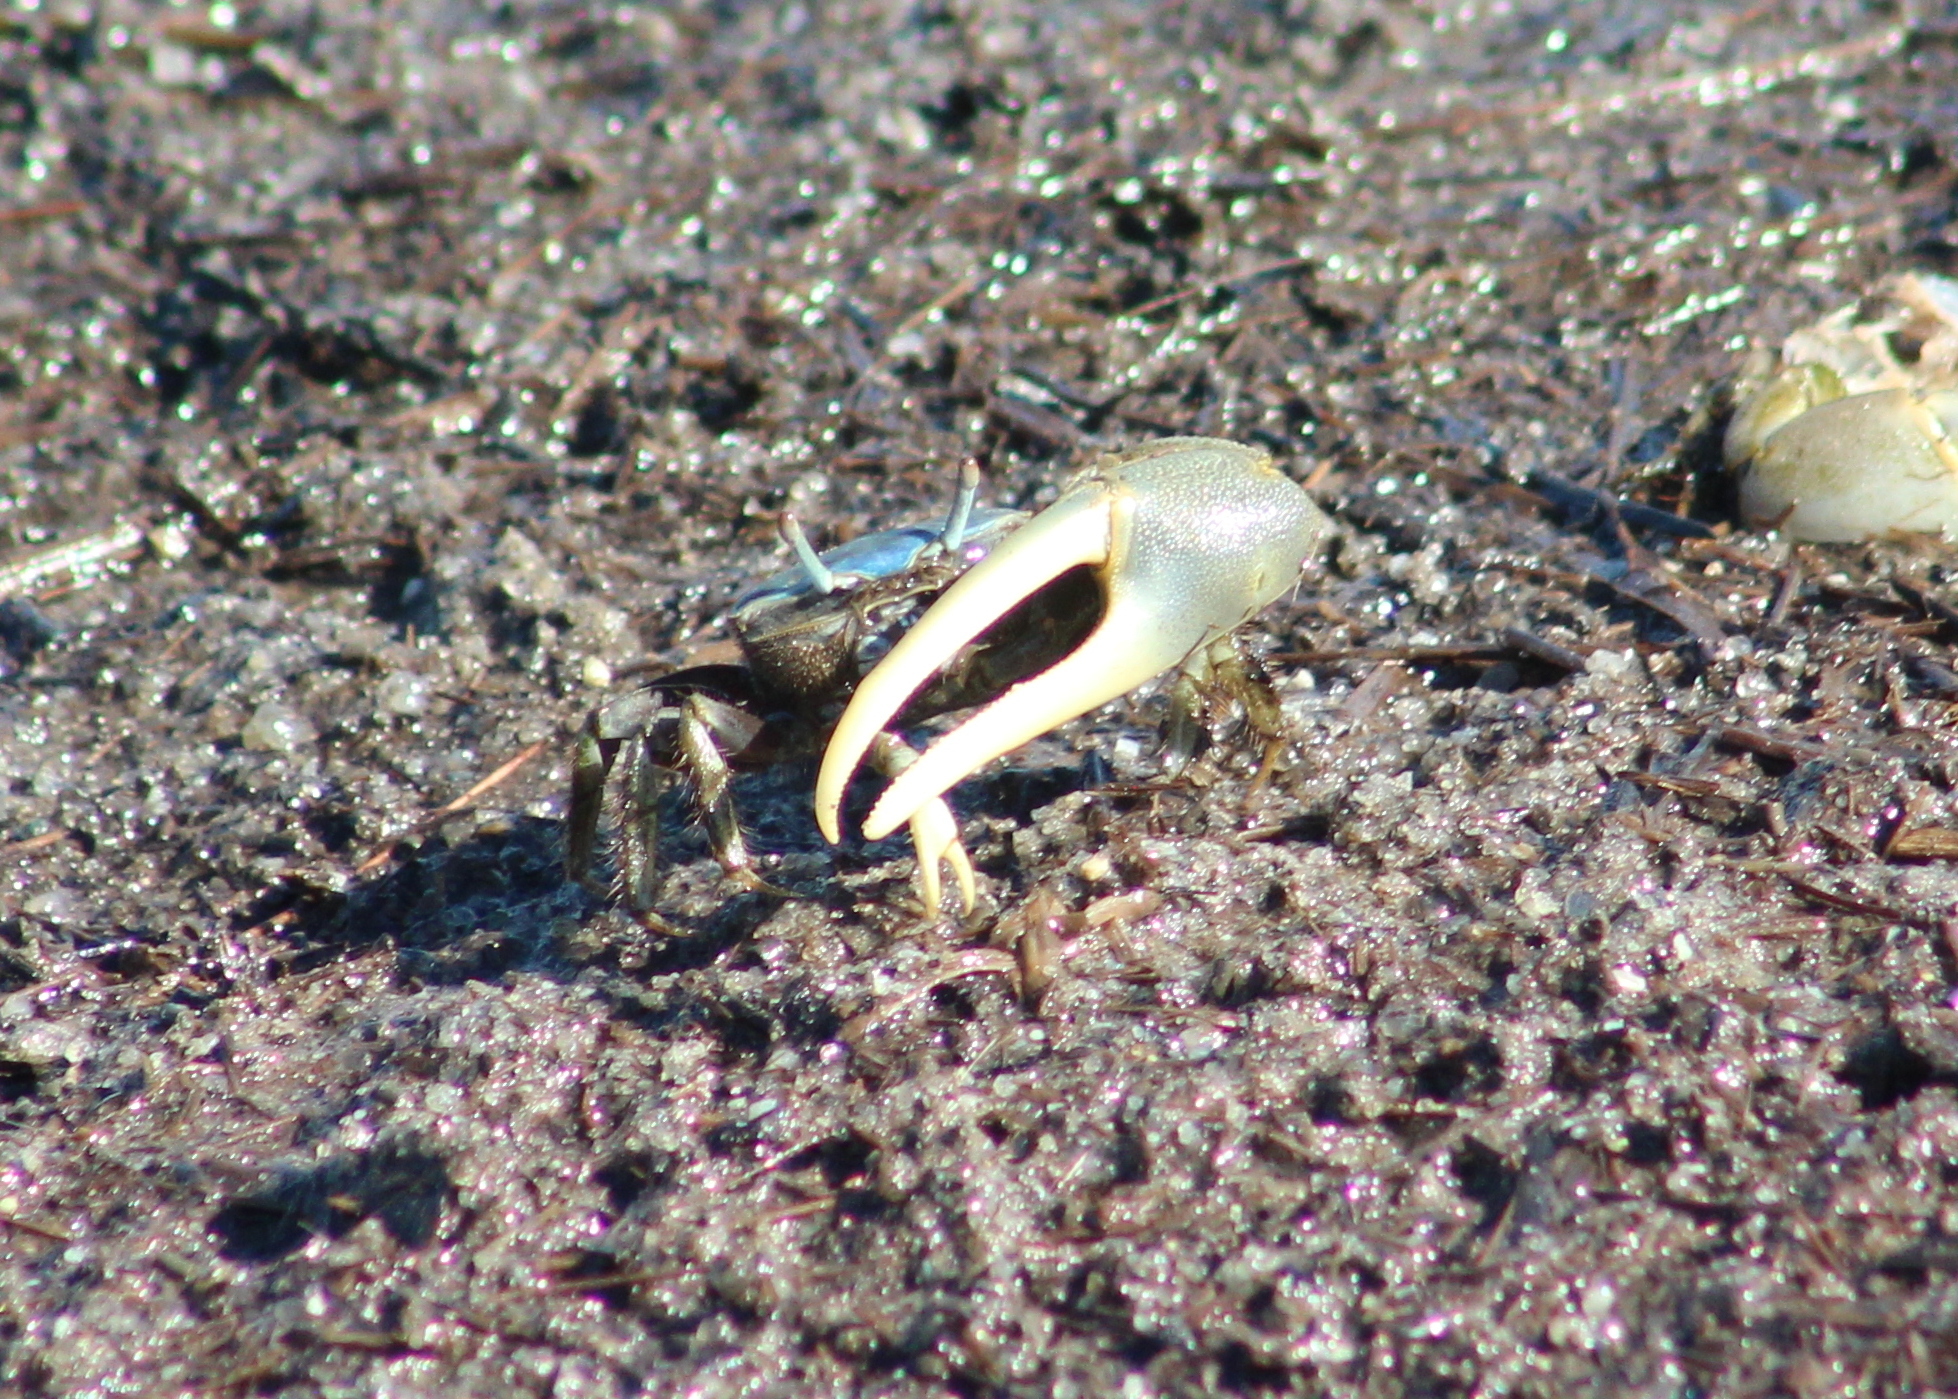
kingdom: Animalia
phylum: Arthropoda
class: Malacostraca
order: Decapoda
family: Ocypodidae
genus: Minuca
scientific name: Minuca pugnax
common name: Mud fiddler crab
